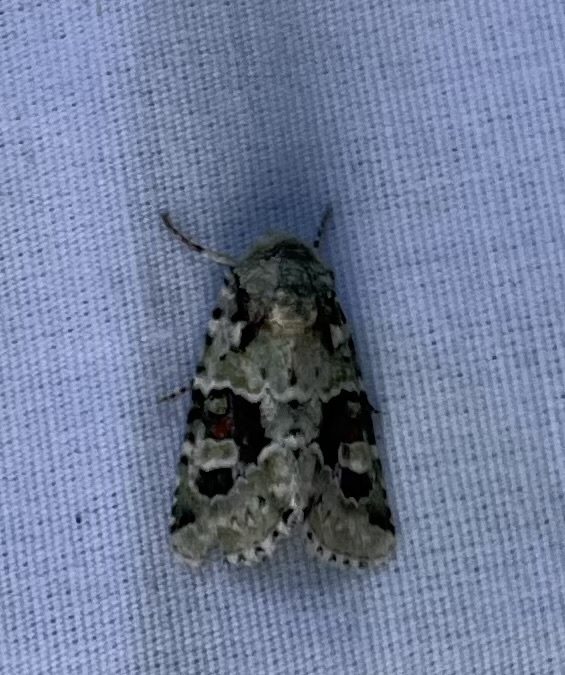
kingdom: Animalia
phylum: Arthropoda
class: Insecta
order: Lepidoptera
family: Noctuidae
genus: Lacinipolia
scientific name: Lacinipolia laudabilis
